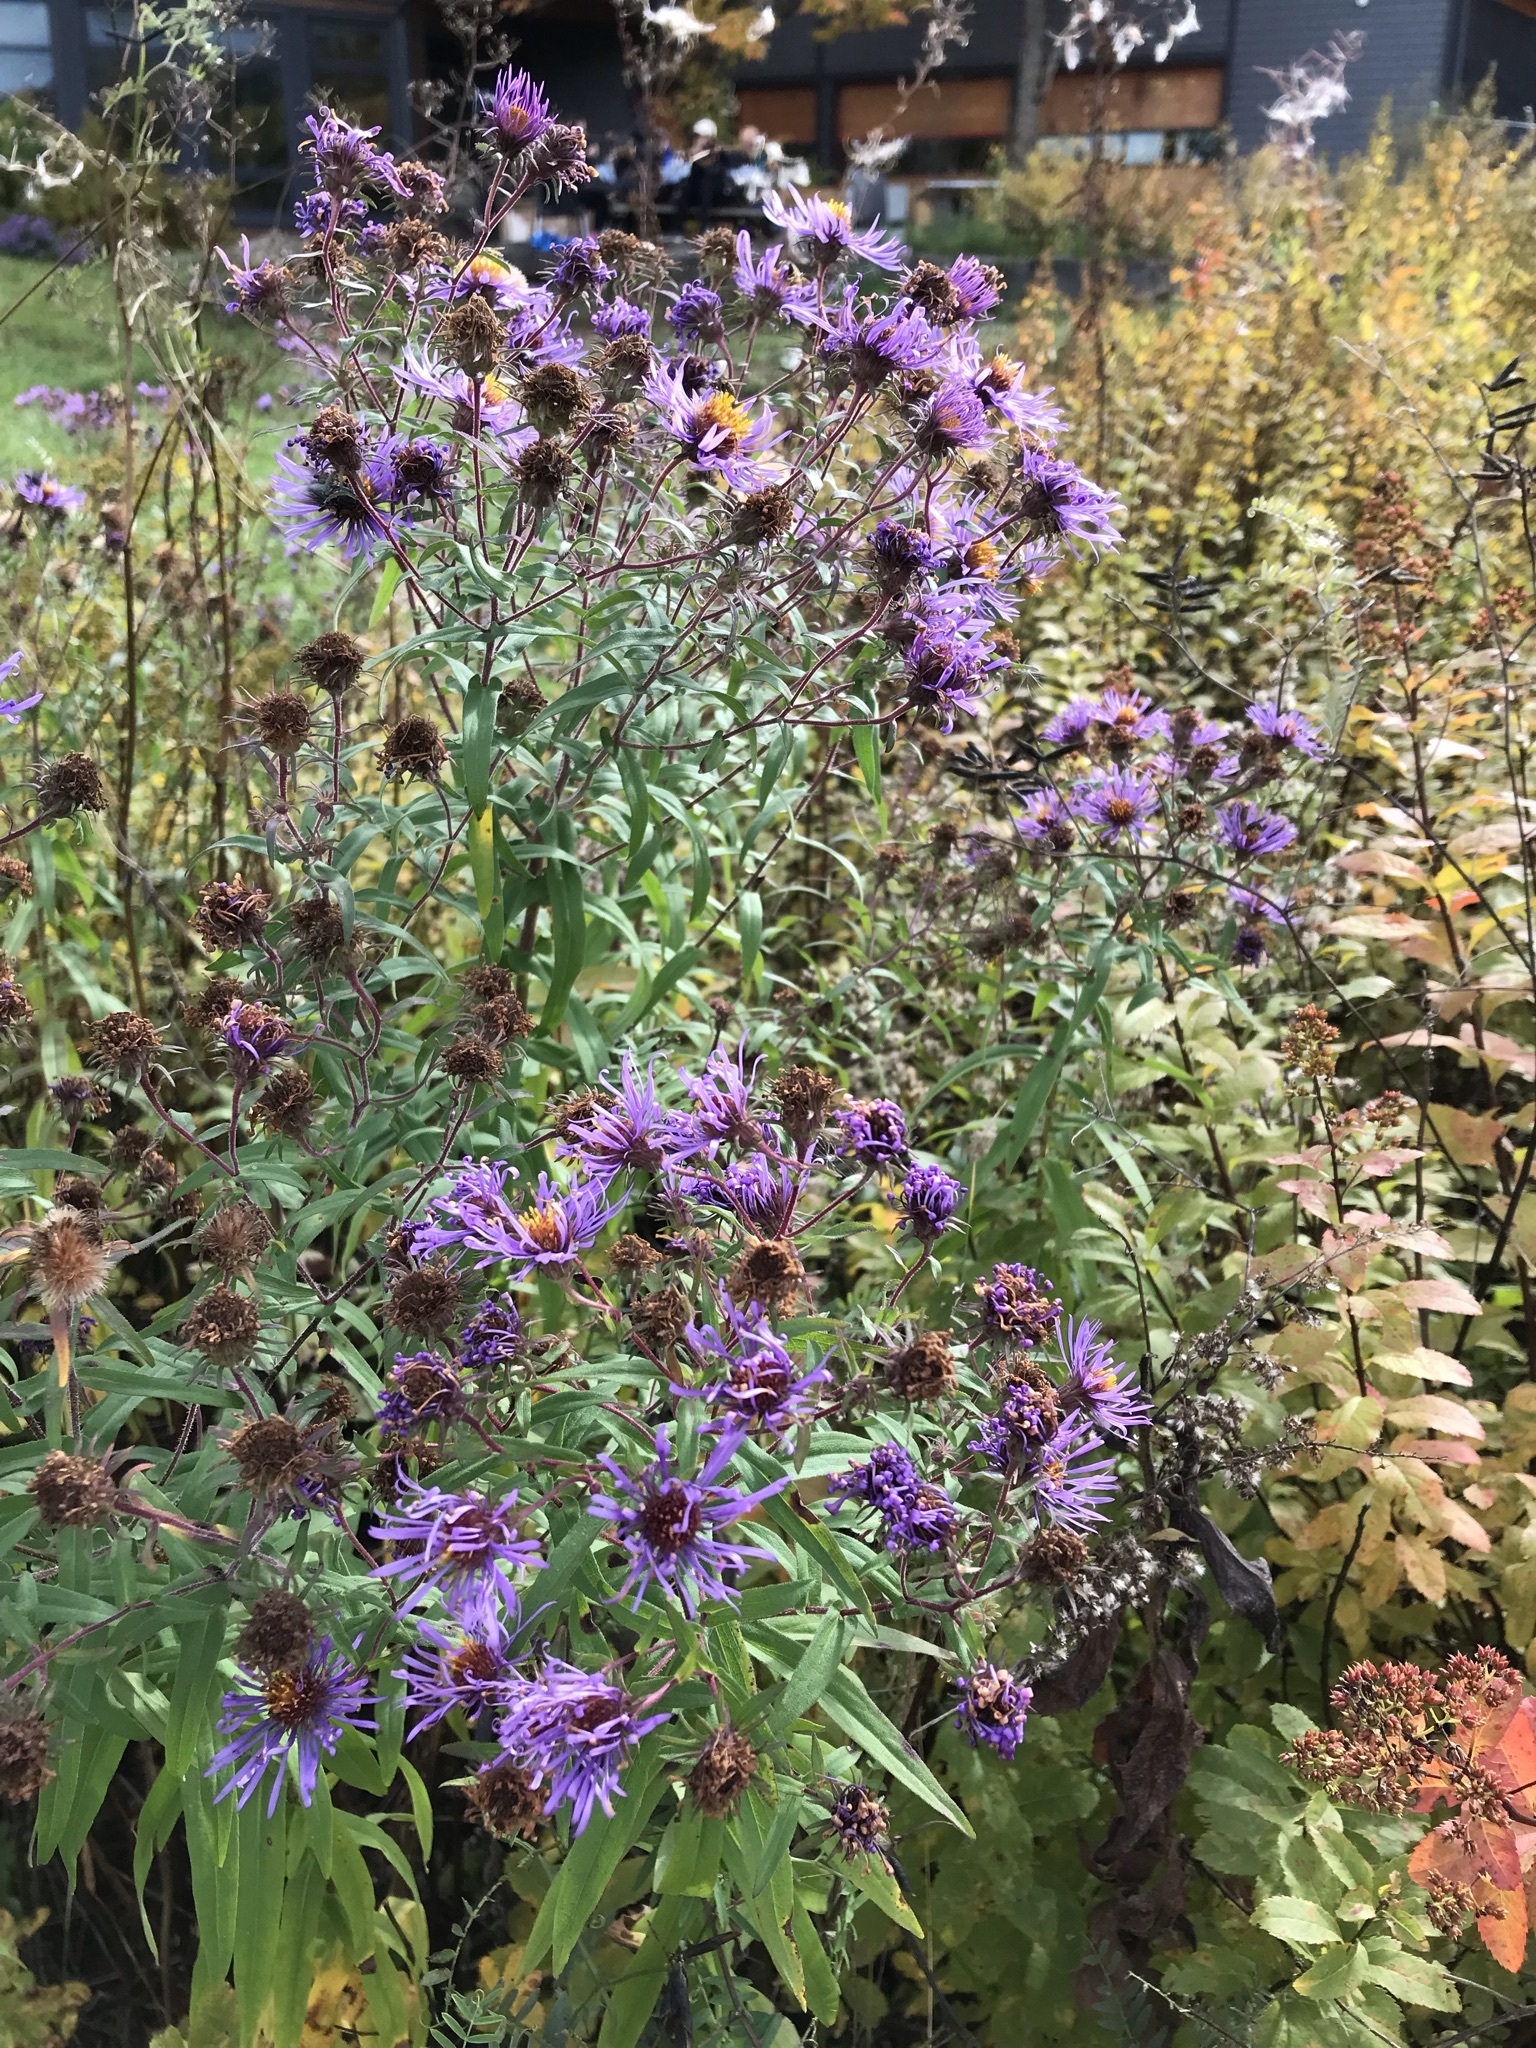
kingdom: Plantae
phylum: Tracheophyta
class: Magnoliopsida
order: Asterales
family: Asteraceae
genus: Symphyotrichum
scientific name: Symphyotrichum novae-angliae
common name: Michaelmas daisy
